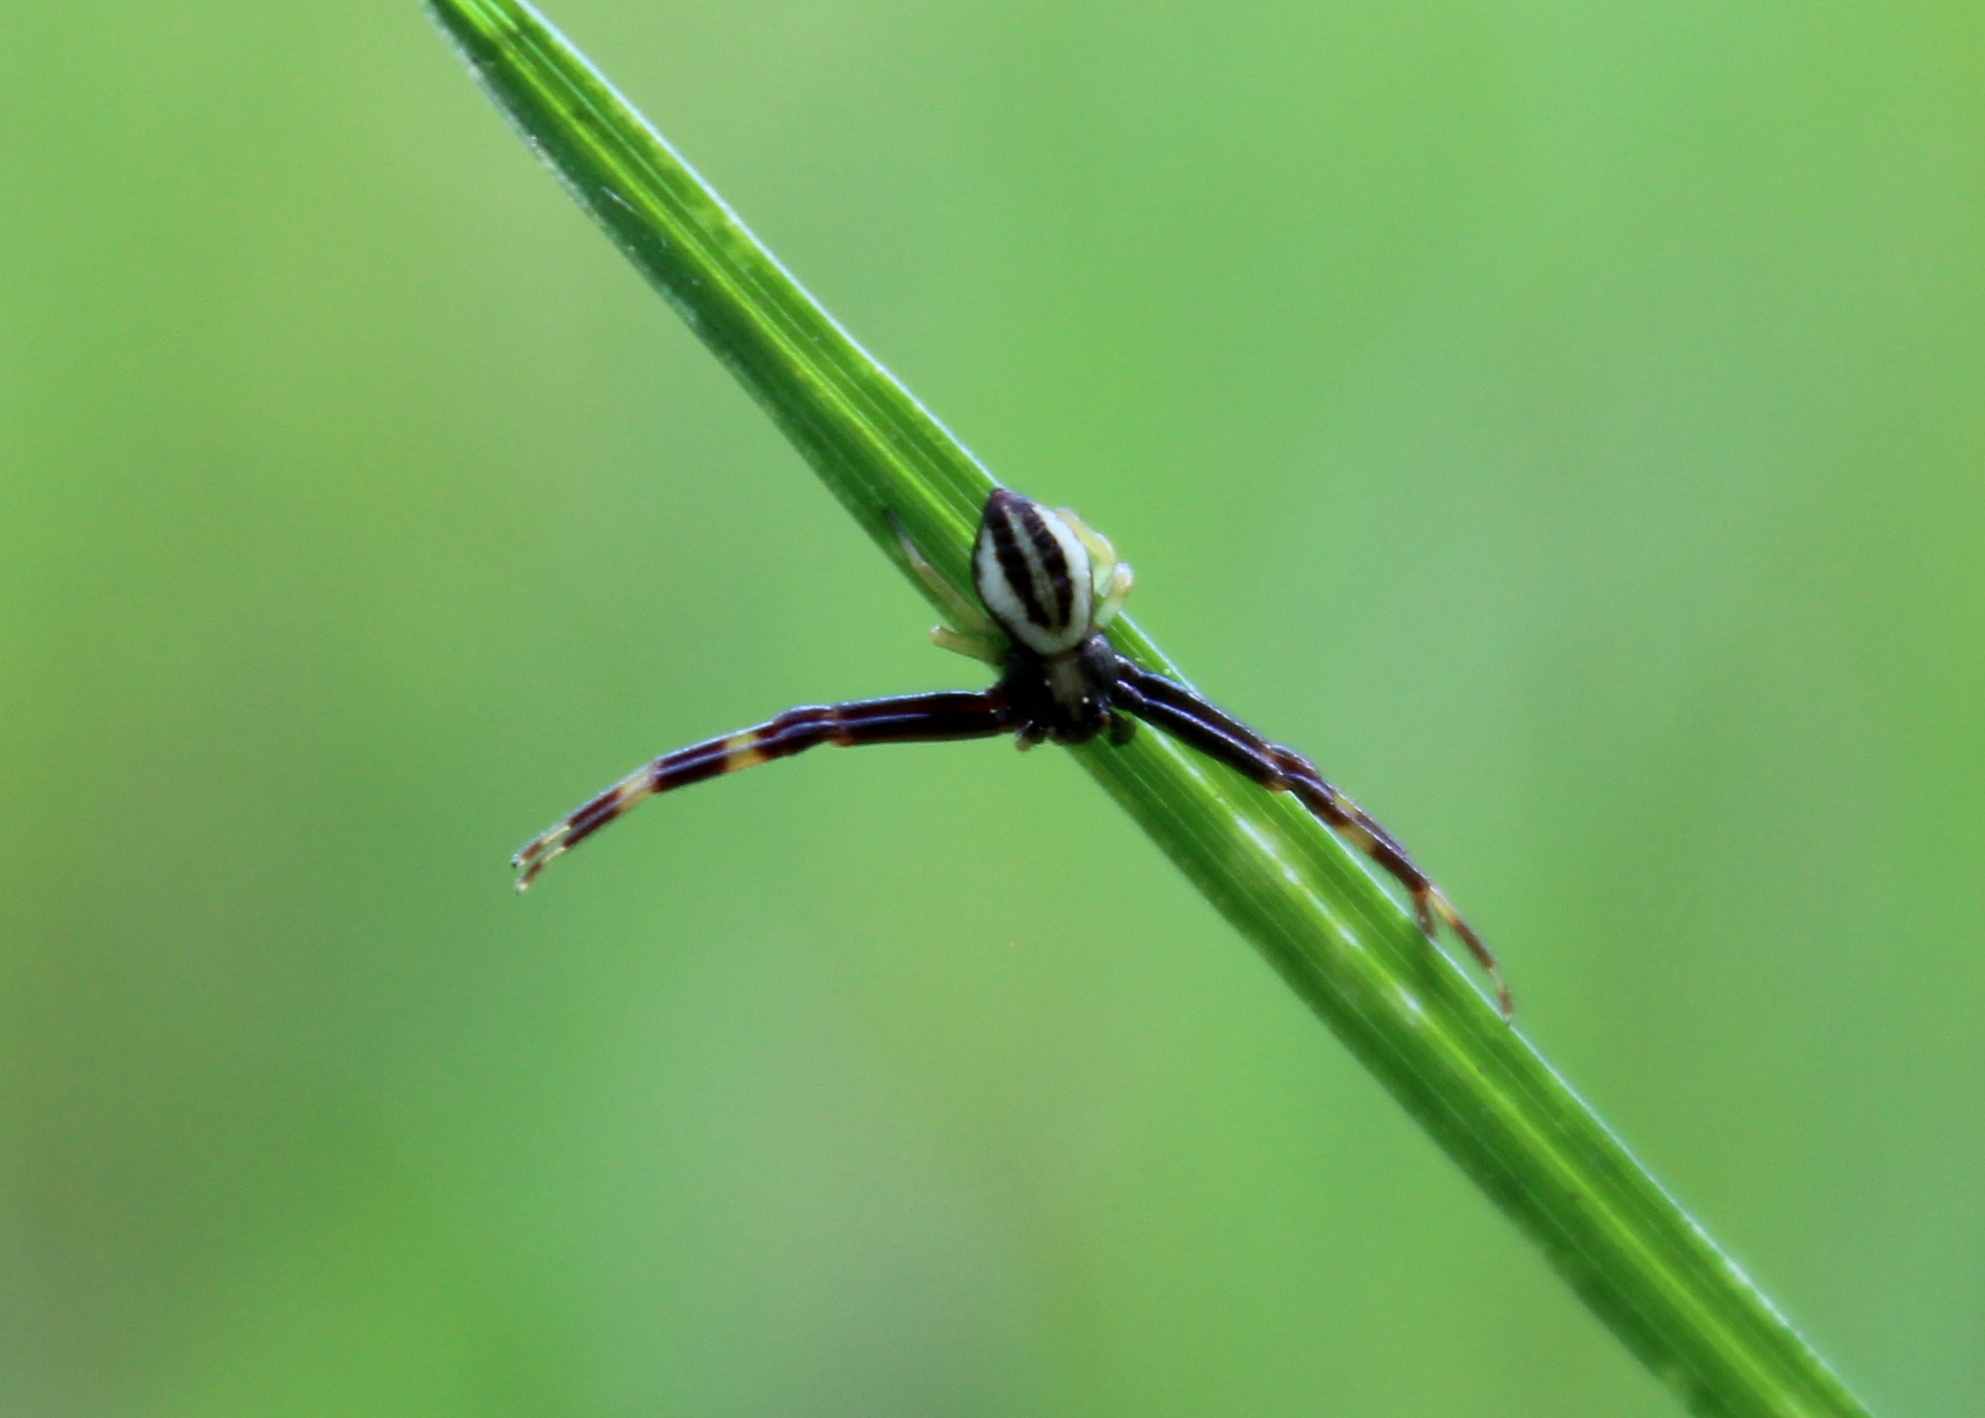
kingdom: Animalia
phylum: Arthropoda
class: Arachnida
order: Araneae
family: Thomisidae
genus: Misumena
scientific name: Misumena vatia
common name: Goldenrod crab spider
